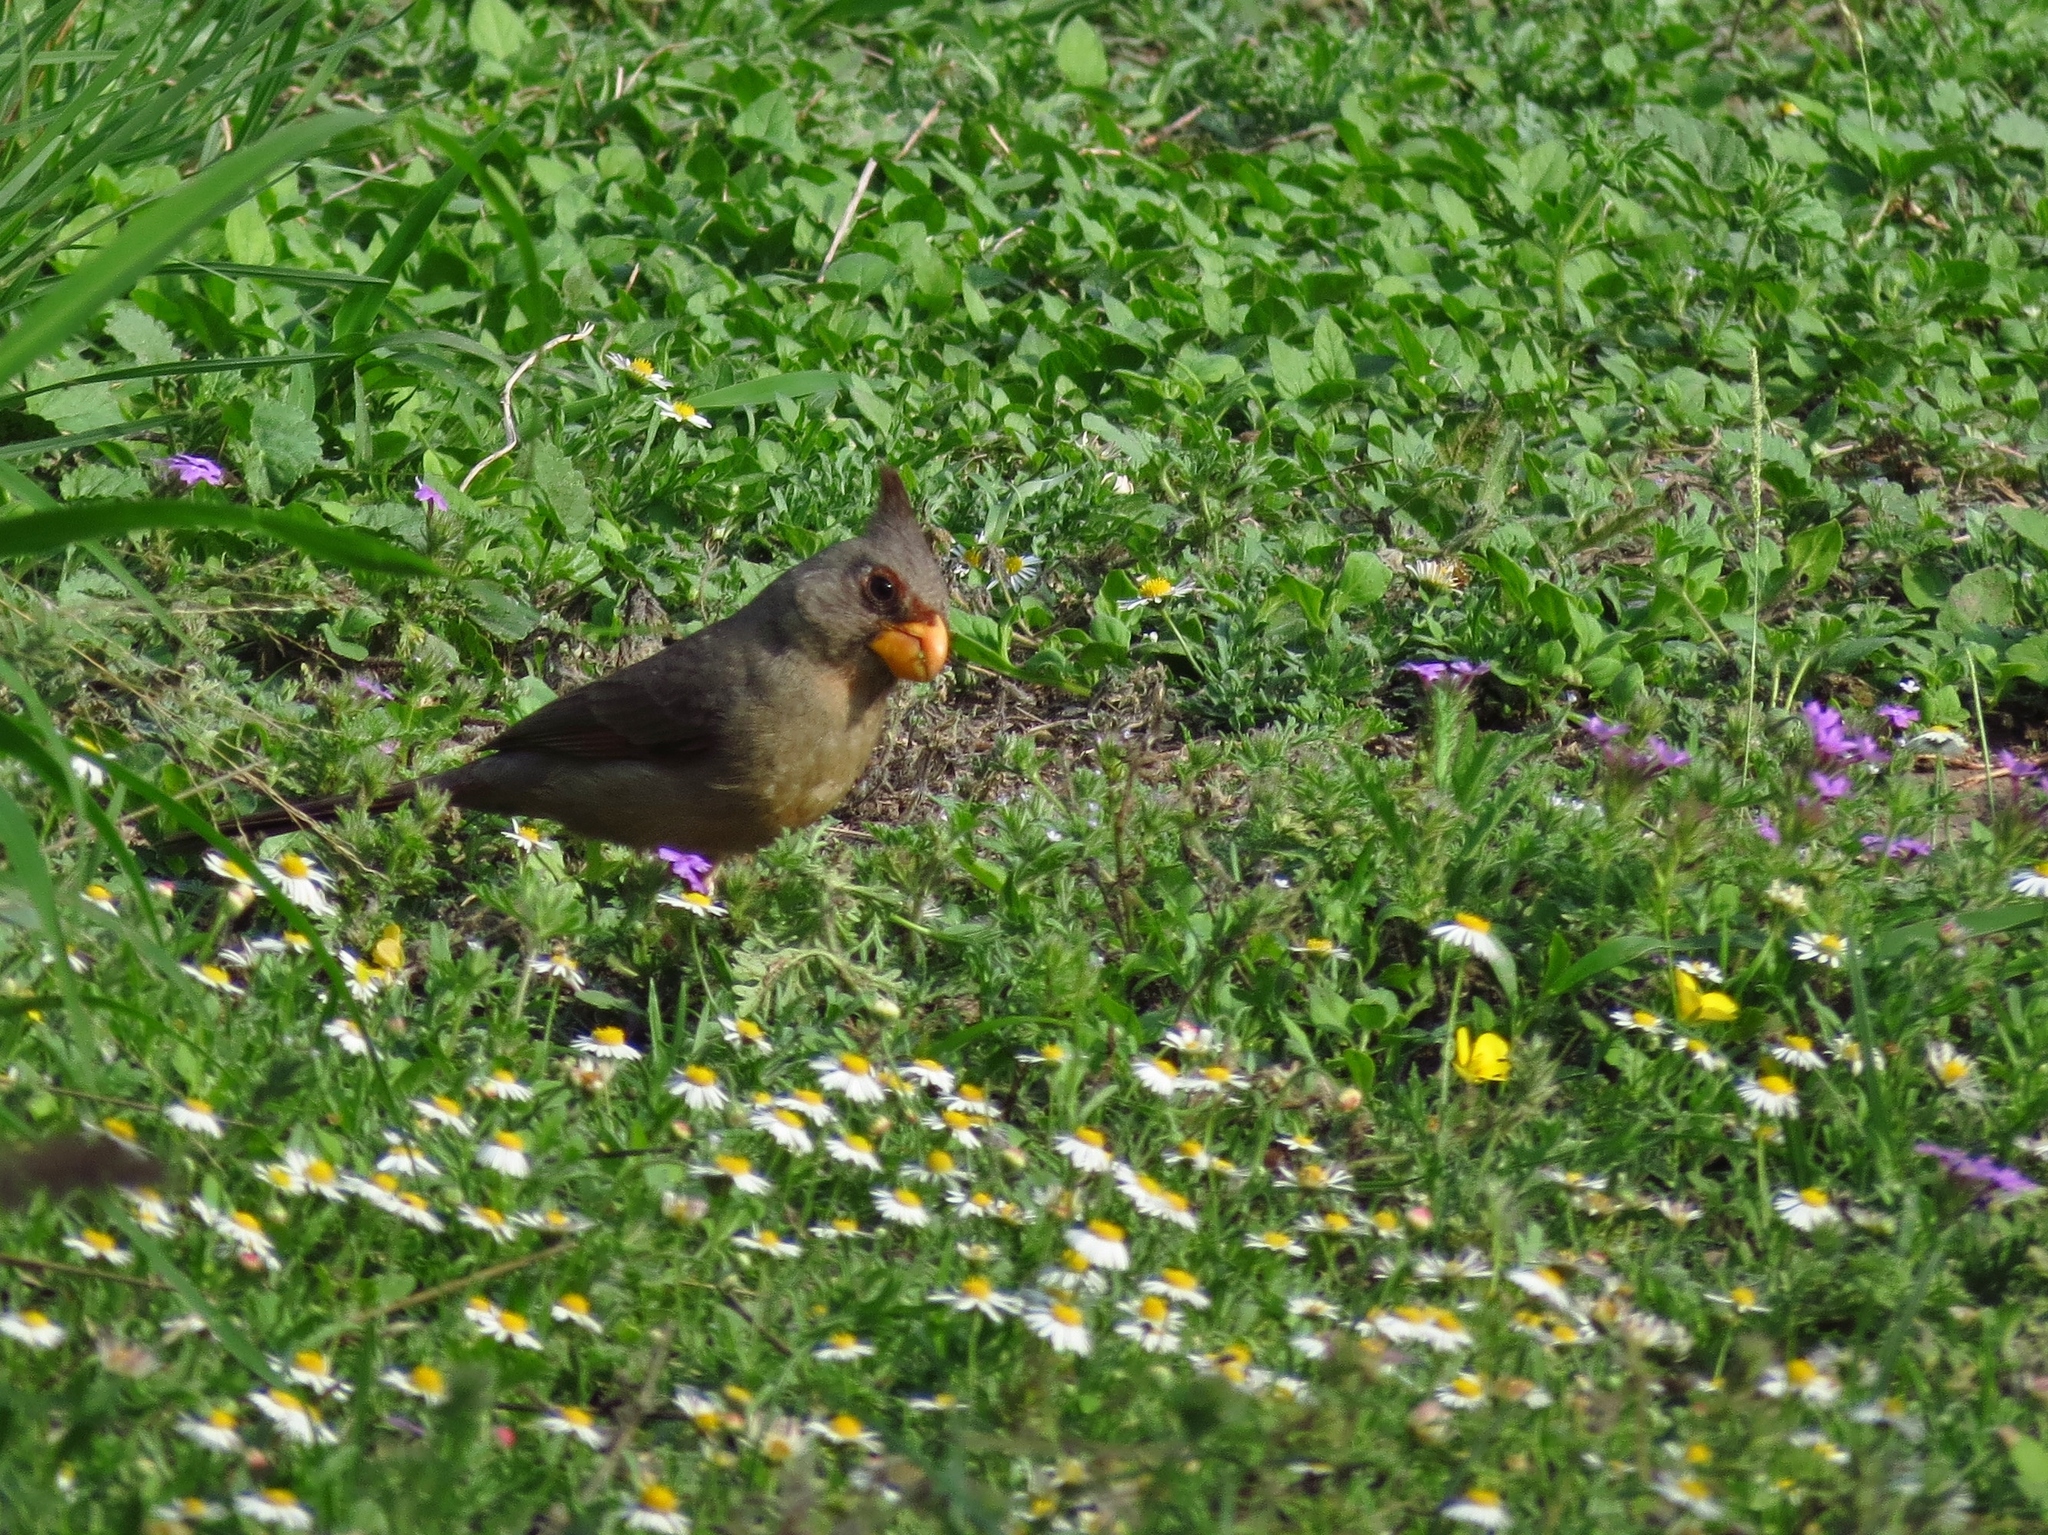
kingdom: Animalia
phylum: Chordata
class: Aves
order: Passeriformes
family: Cardinalidae
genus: Cardinalis
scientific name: Cardinalis sinuatus
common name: Pyrrhuloxia
